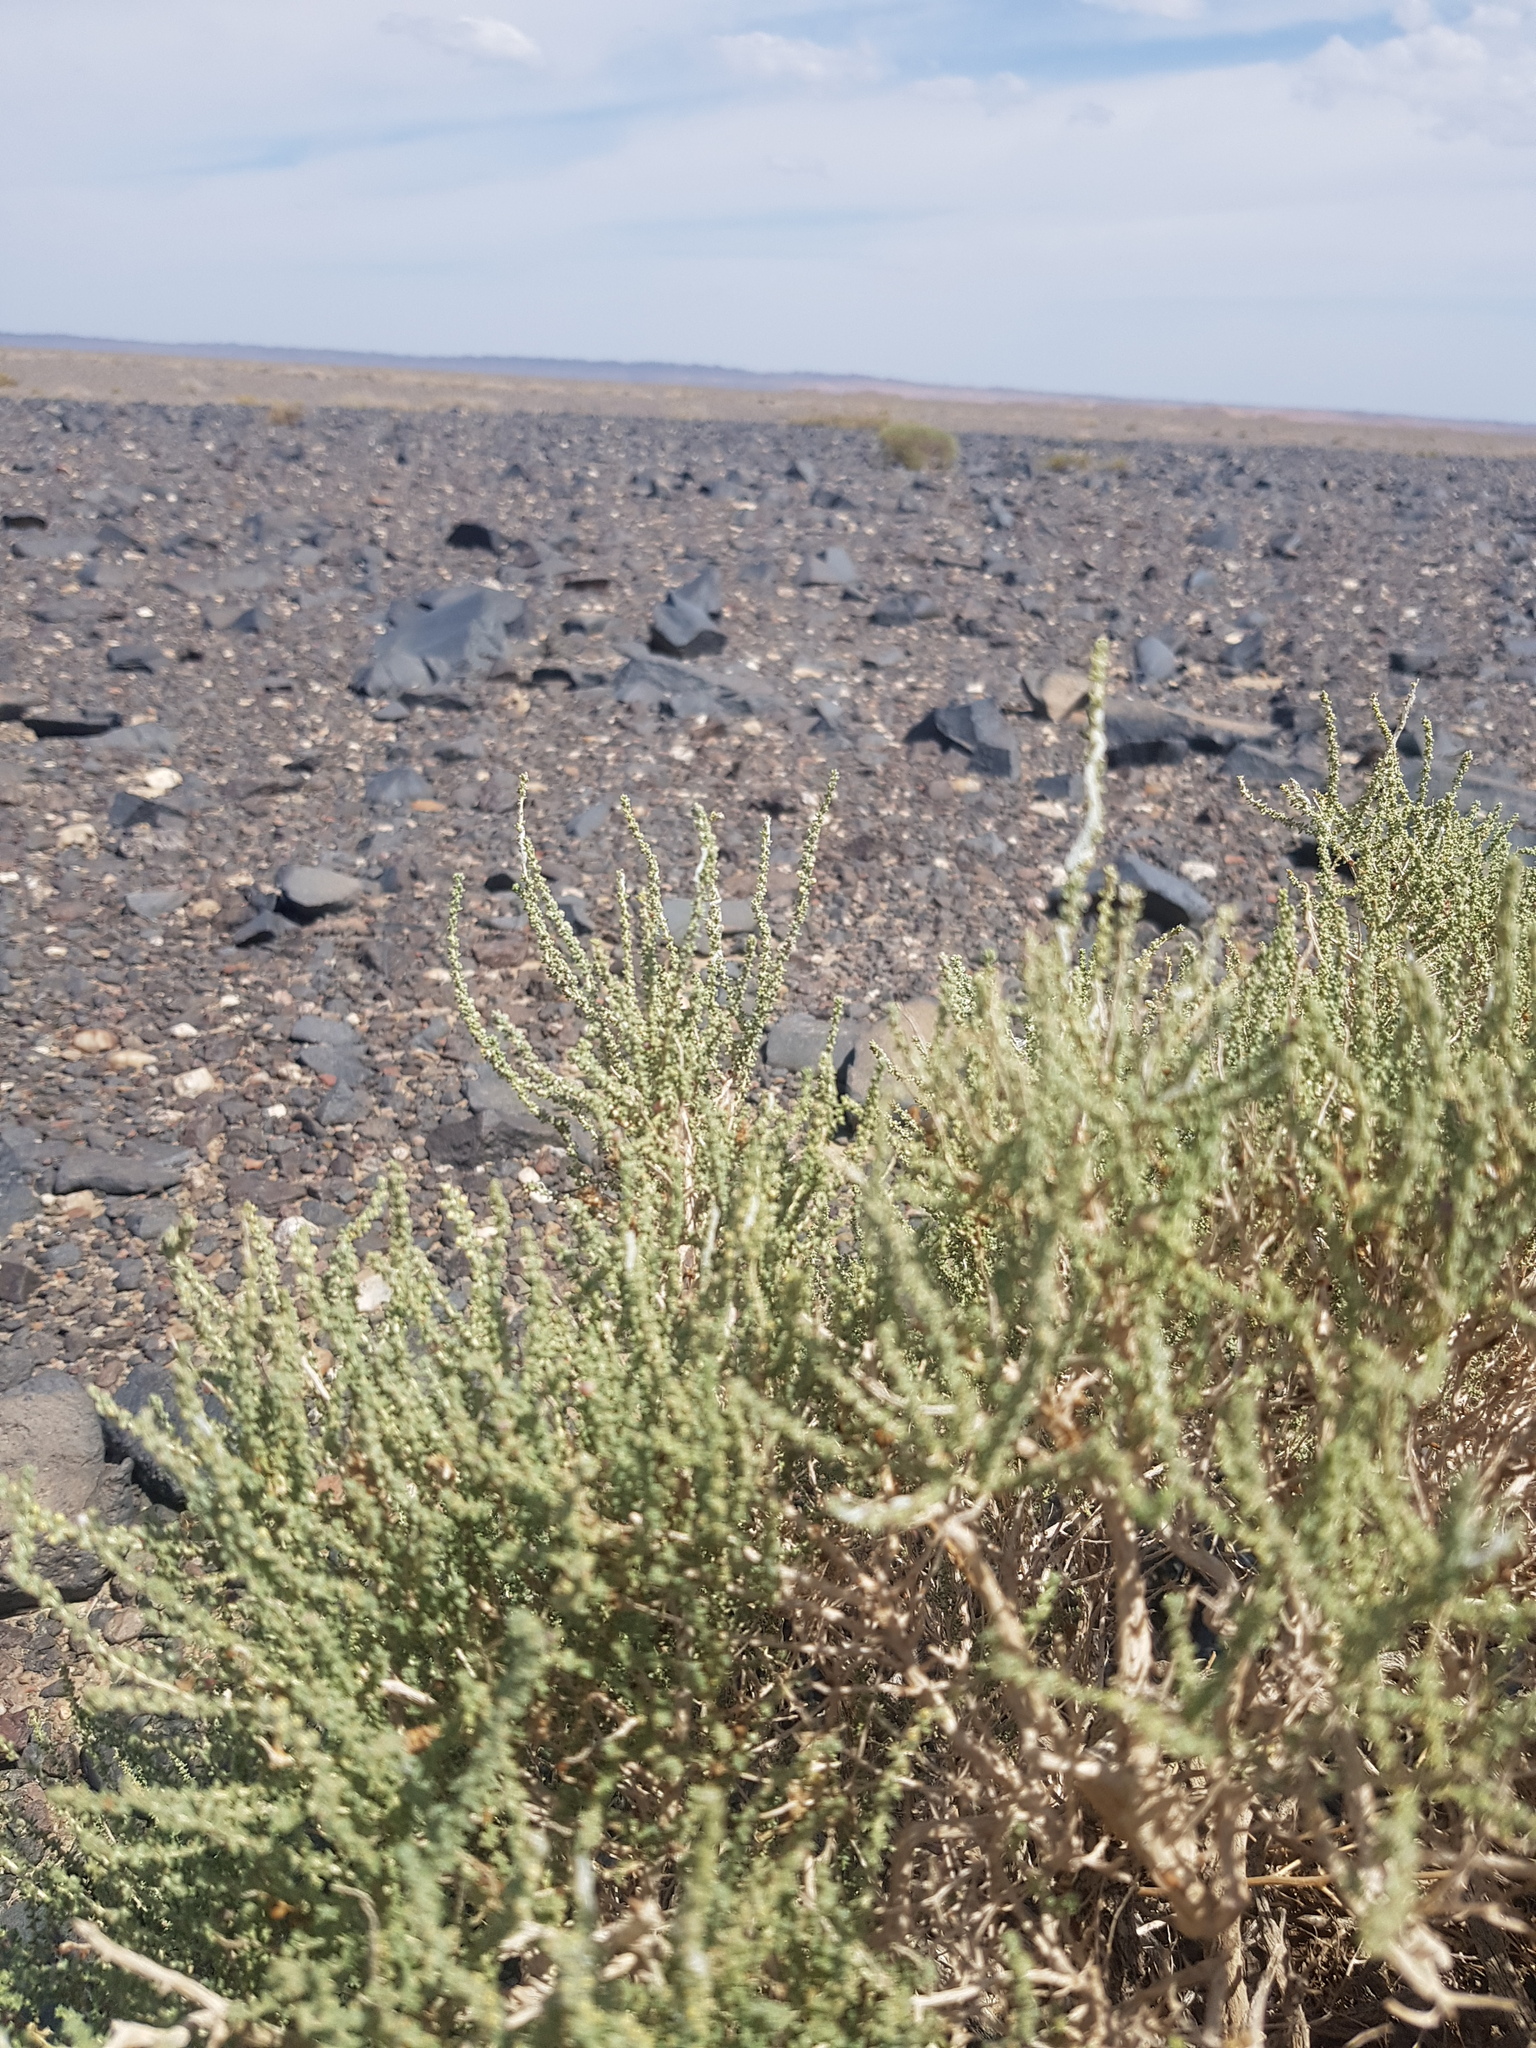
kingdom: Plantae
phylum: Tracheophyta
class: Magnoliopsida
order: Caryophyllales
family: Tamaricaceae
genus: Reaumuria
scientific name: Reaumuria songarica
